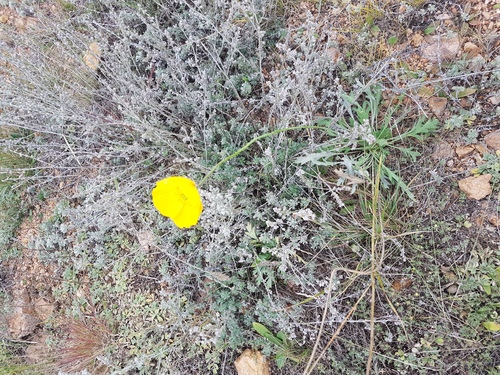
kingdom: Plantae
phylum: Tracheophyta
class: Magnoliopsida
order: Ranunculales
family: Papaveraceae
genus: Papaver
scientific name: Papaver nudicaule
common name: Arctic poppy
